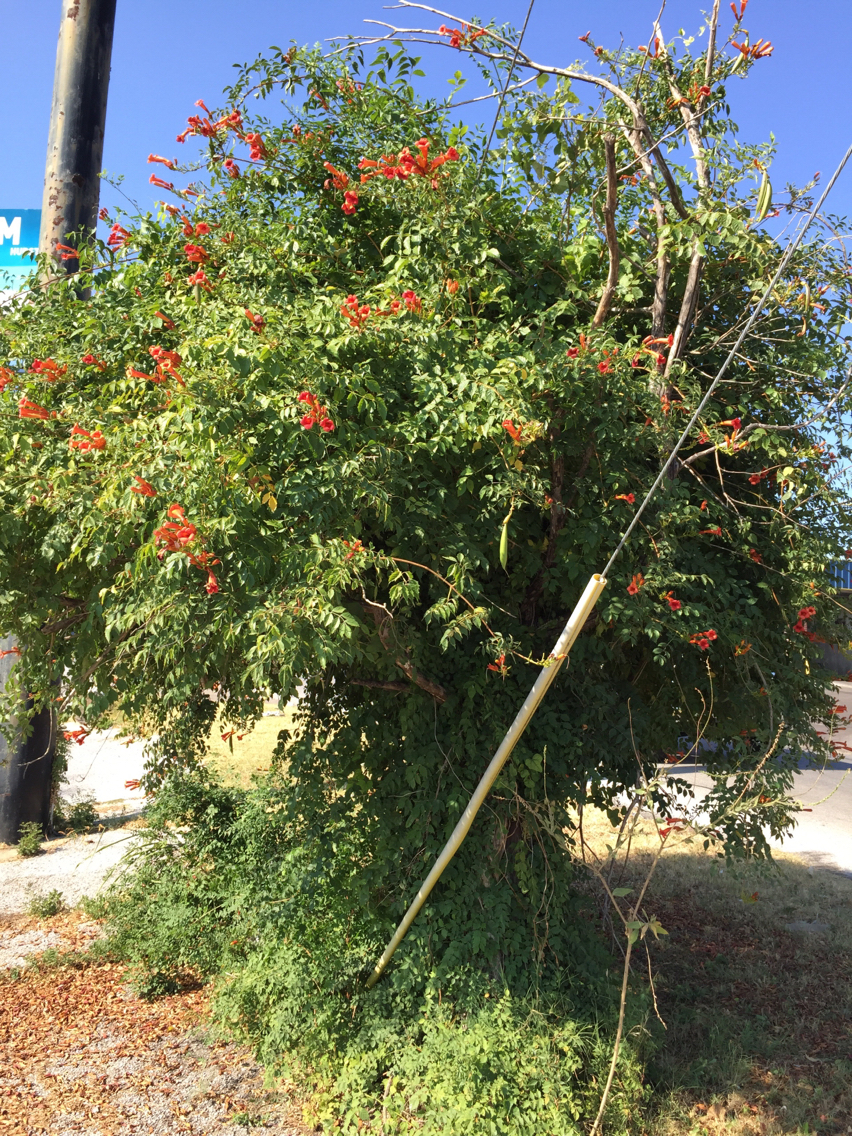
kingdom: Plantae
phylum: Tracheophyta
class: Magnoliopsida
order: Lamiales
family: Bignoniaceae
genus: Campsis
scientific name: Campsis radicans
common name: Trumpet-creeper
